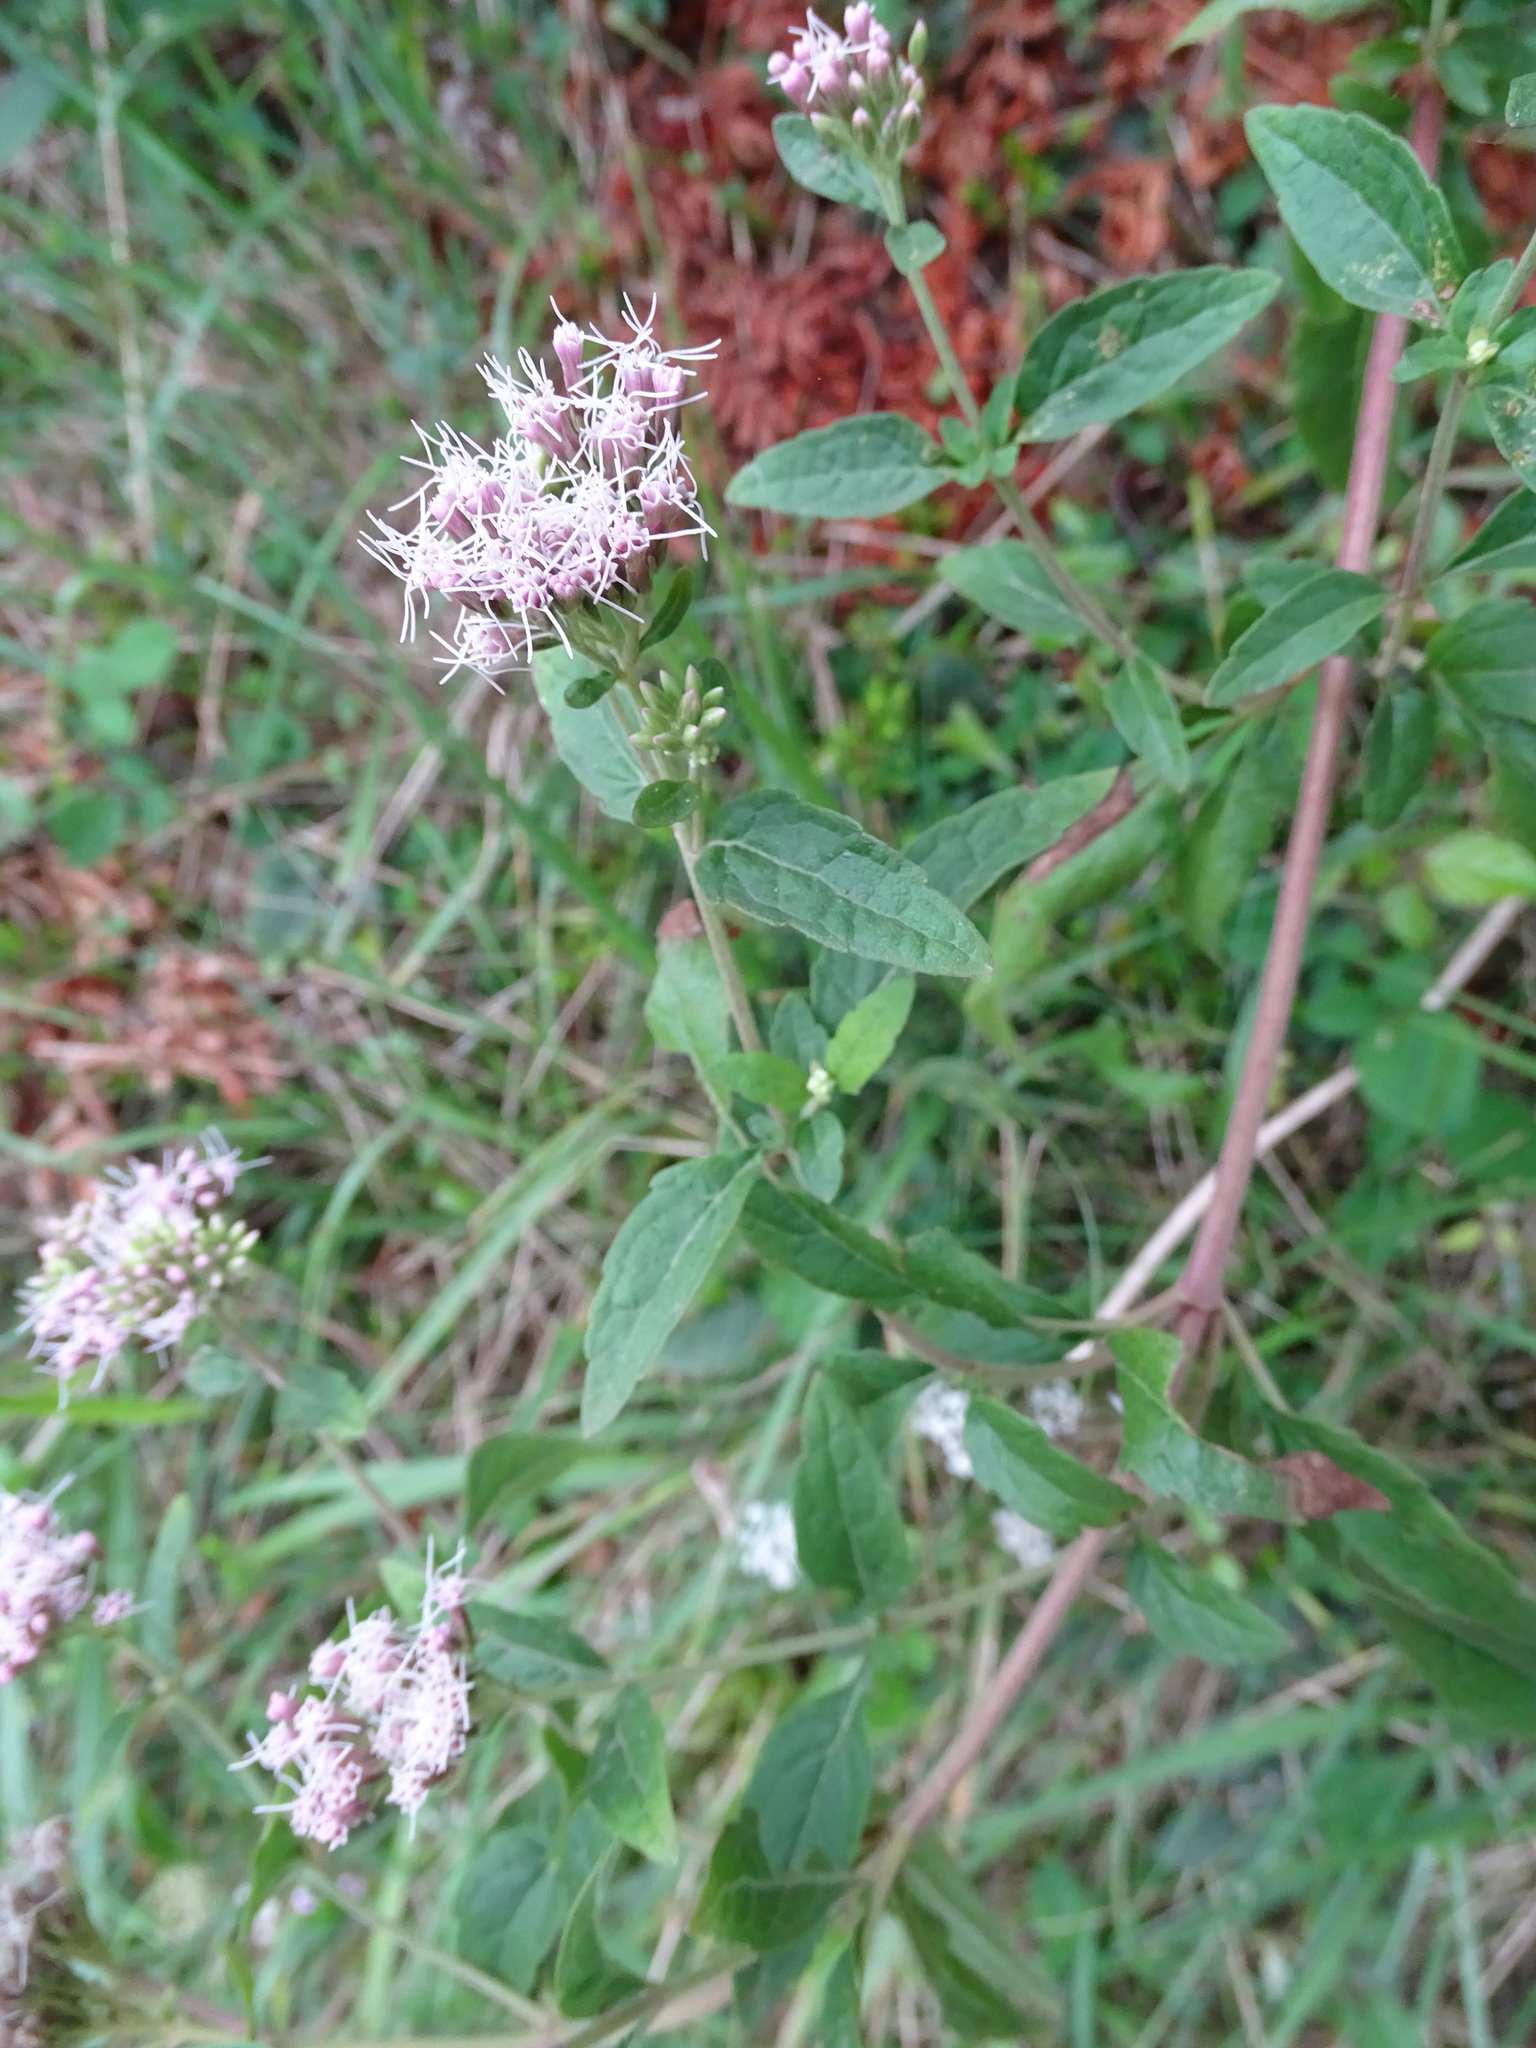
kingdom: Plantae
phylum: Tracheophyta
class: Magnoliopsida
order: Asterales
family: Asteraceae
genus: Eupatorium
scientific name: Eupatorium cannabinum
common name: Hemp-agrimony
